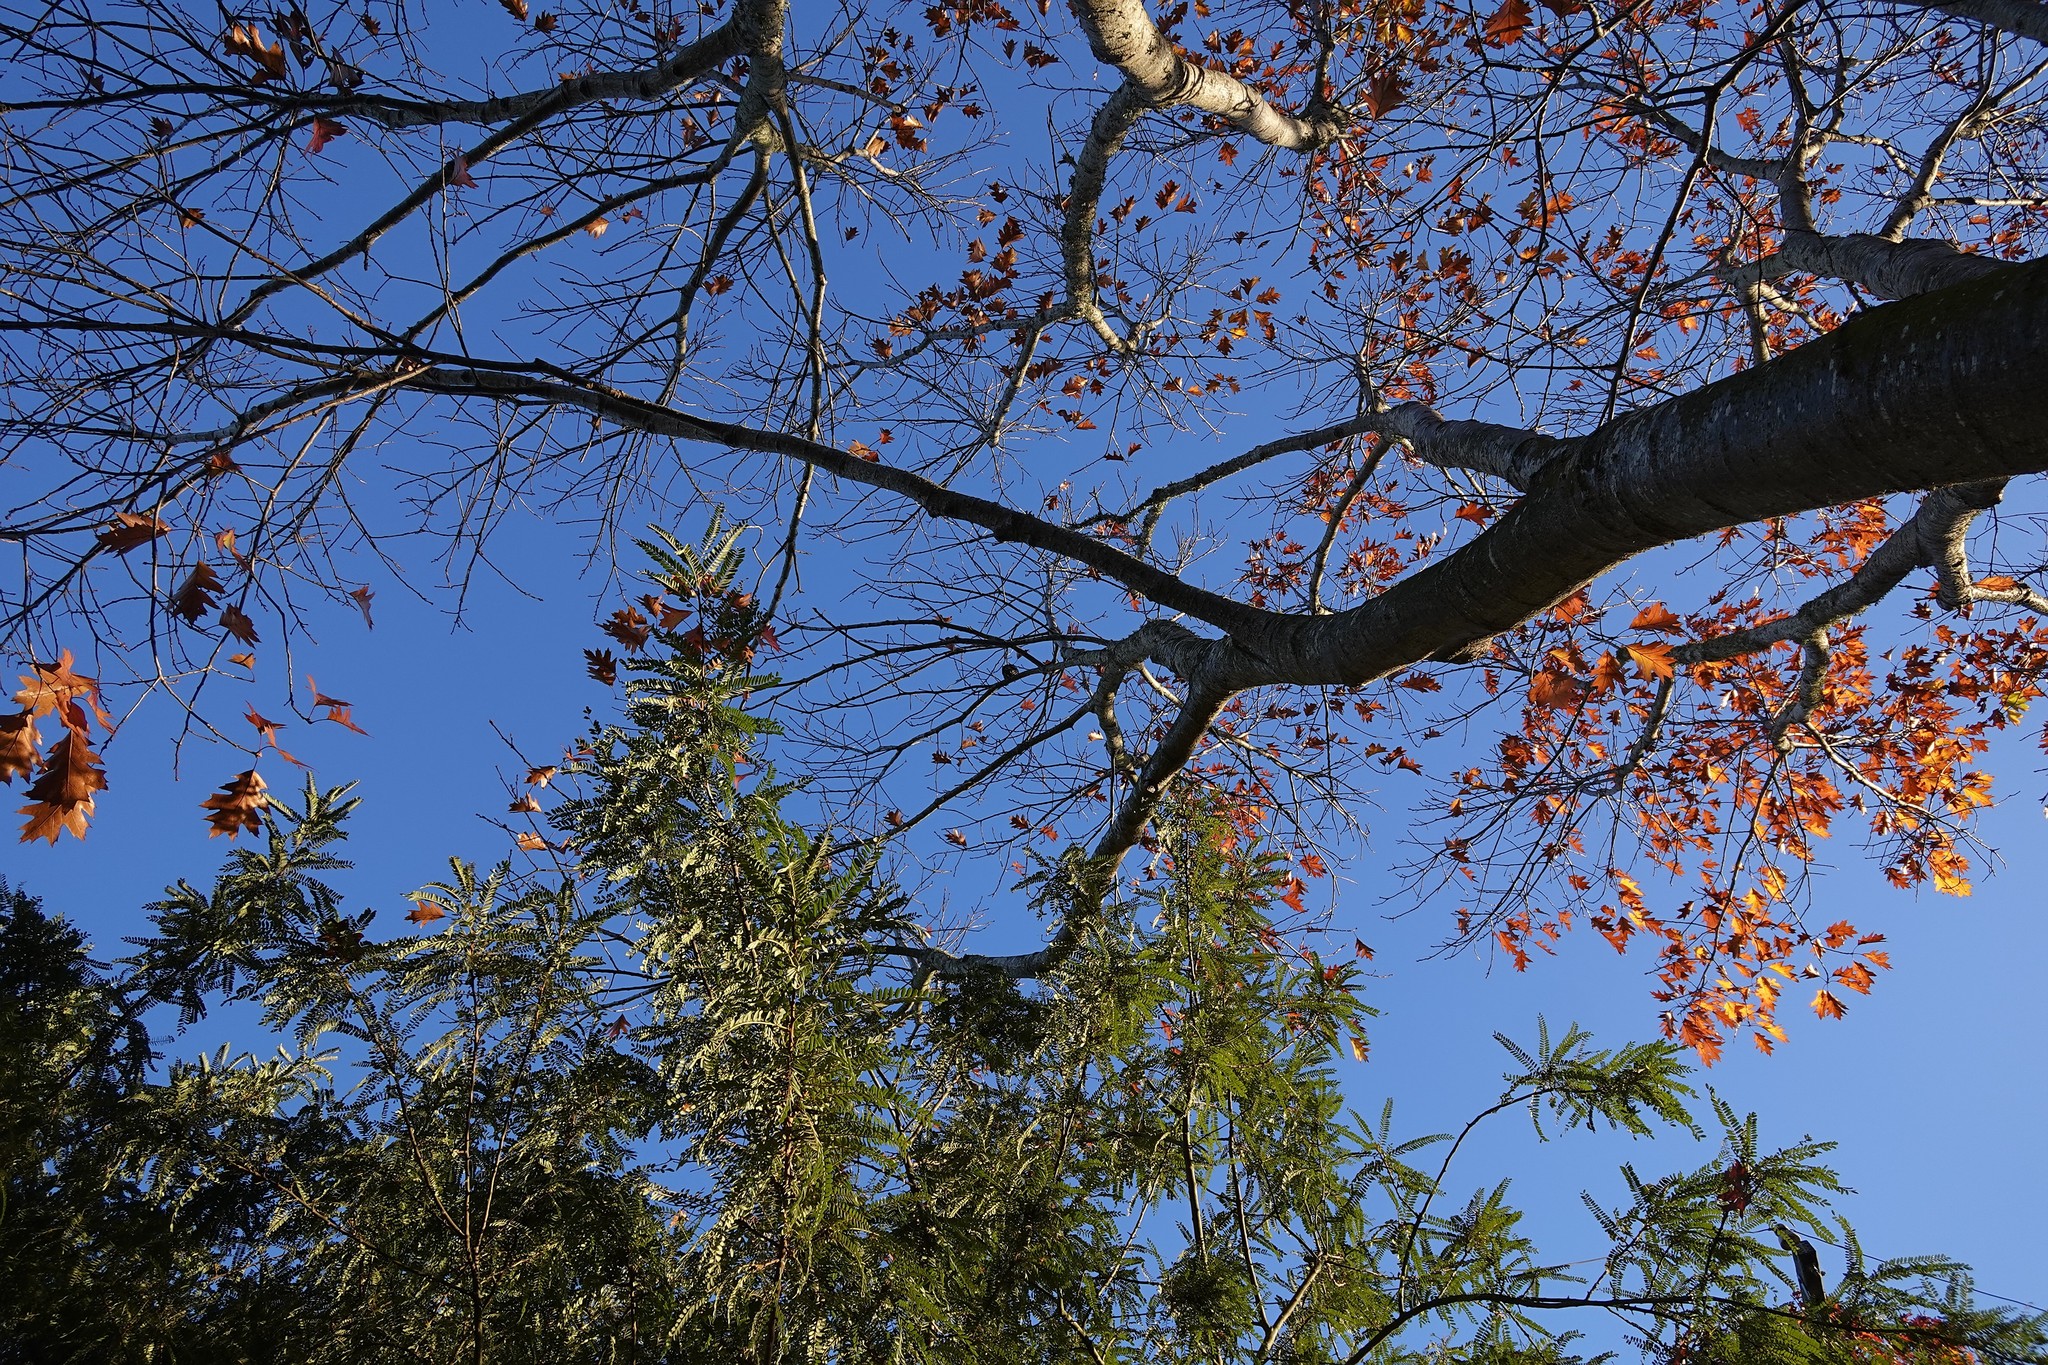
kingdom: Animalia
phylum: Chordata
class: Aves
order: Passeriformes
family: Sturnidae
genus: Sturnus
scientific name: Sturnus vulgaris
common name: Common starling
